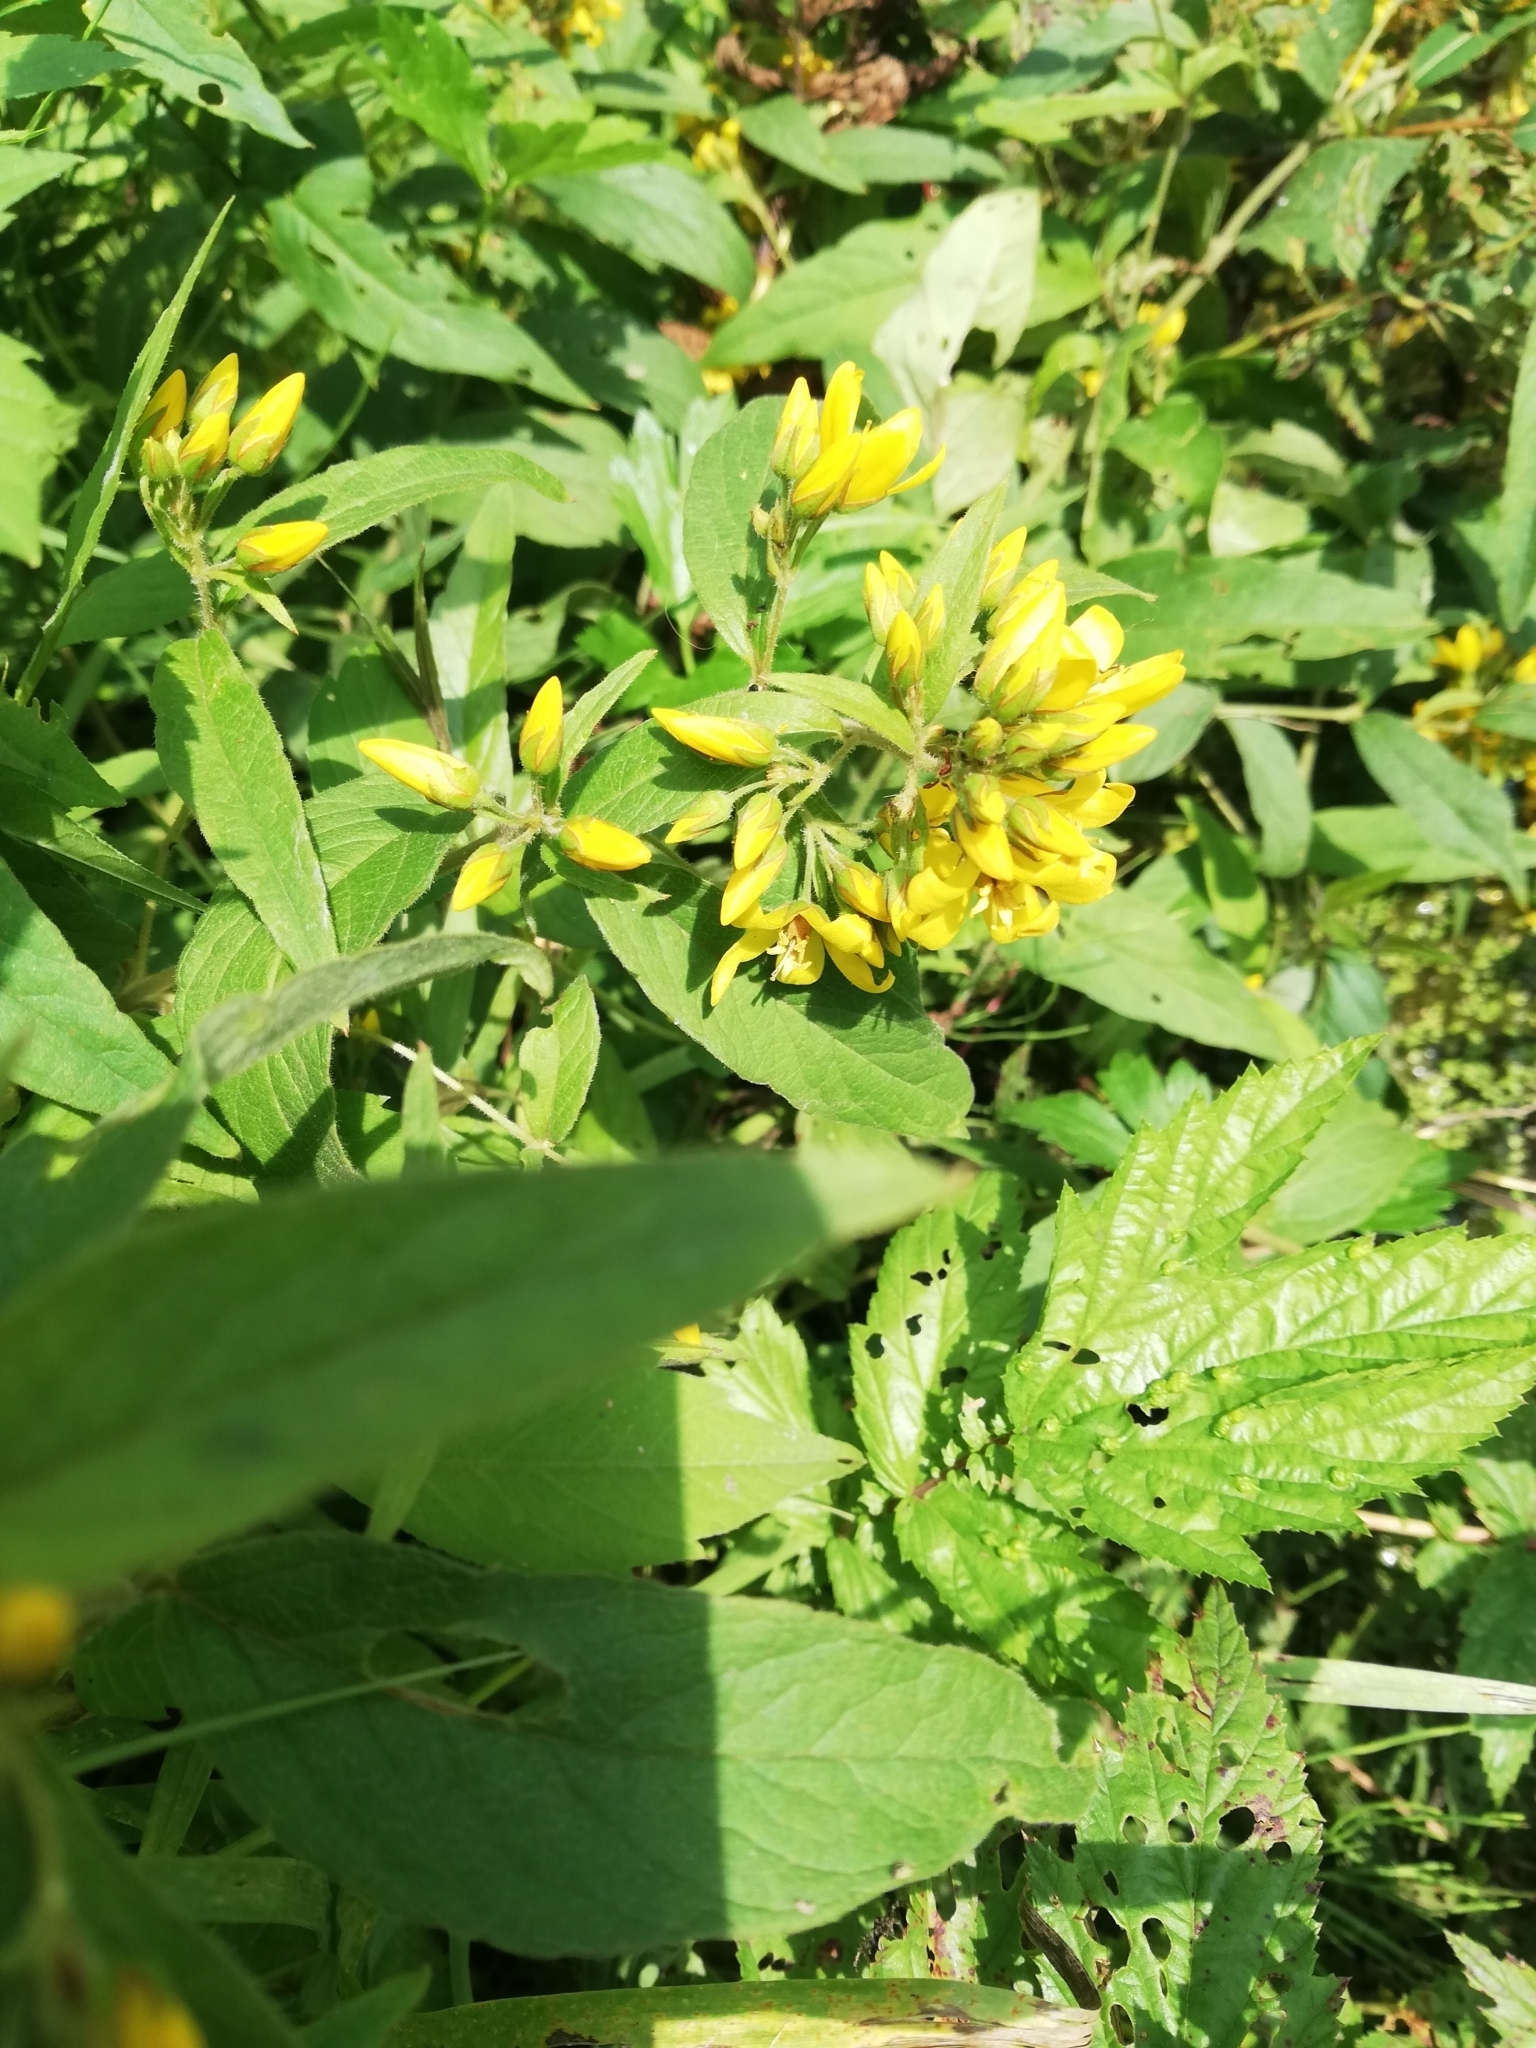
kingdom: Plantae
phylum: Tracheophyta
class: Magnoliopsida
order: Ericales
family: Primulaceae
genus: Lysimachia
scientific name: Lysimachia vulgaris
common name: Yellow loosestrife
